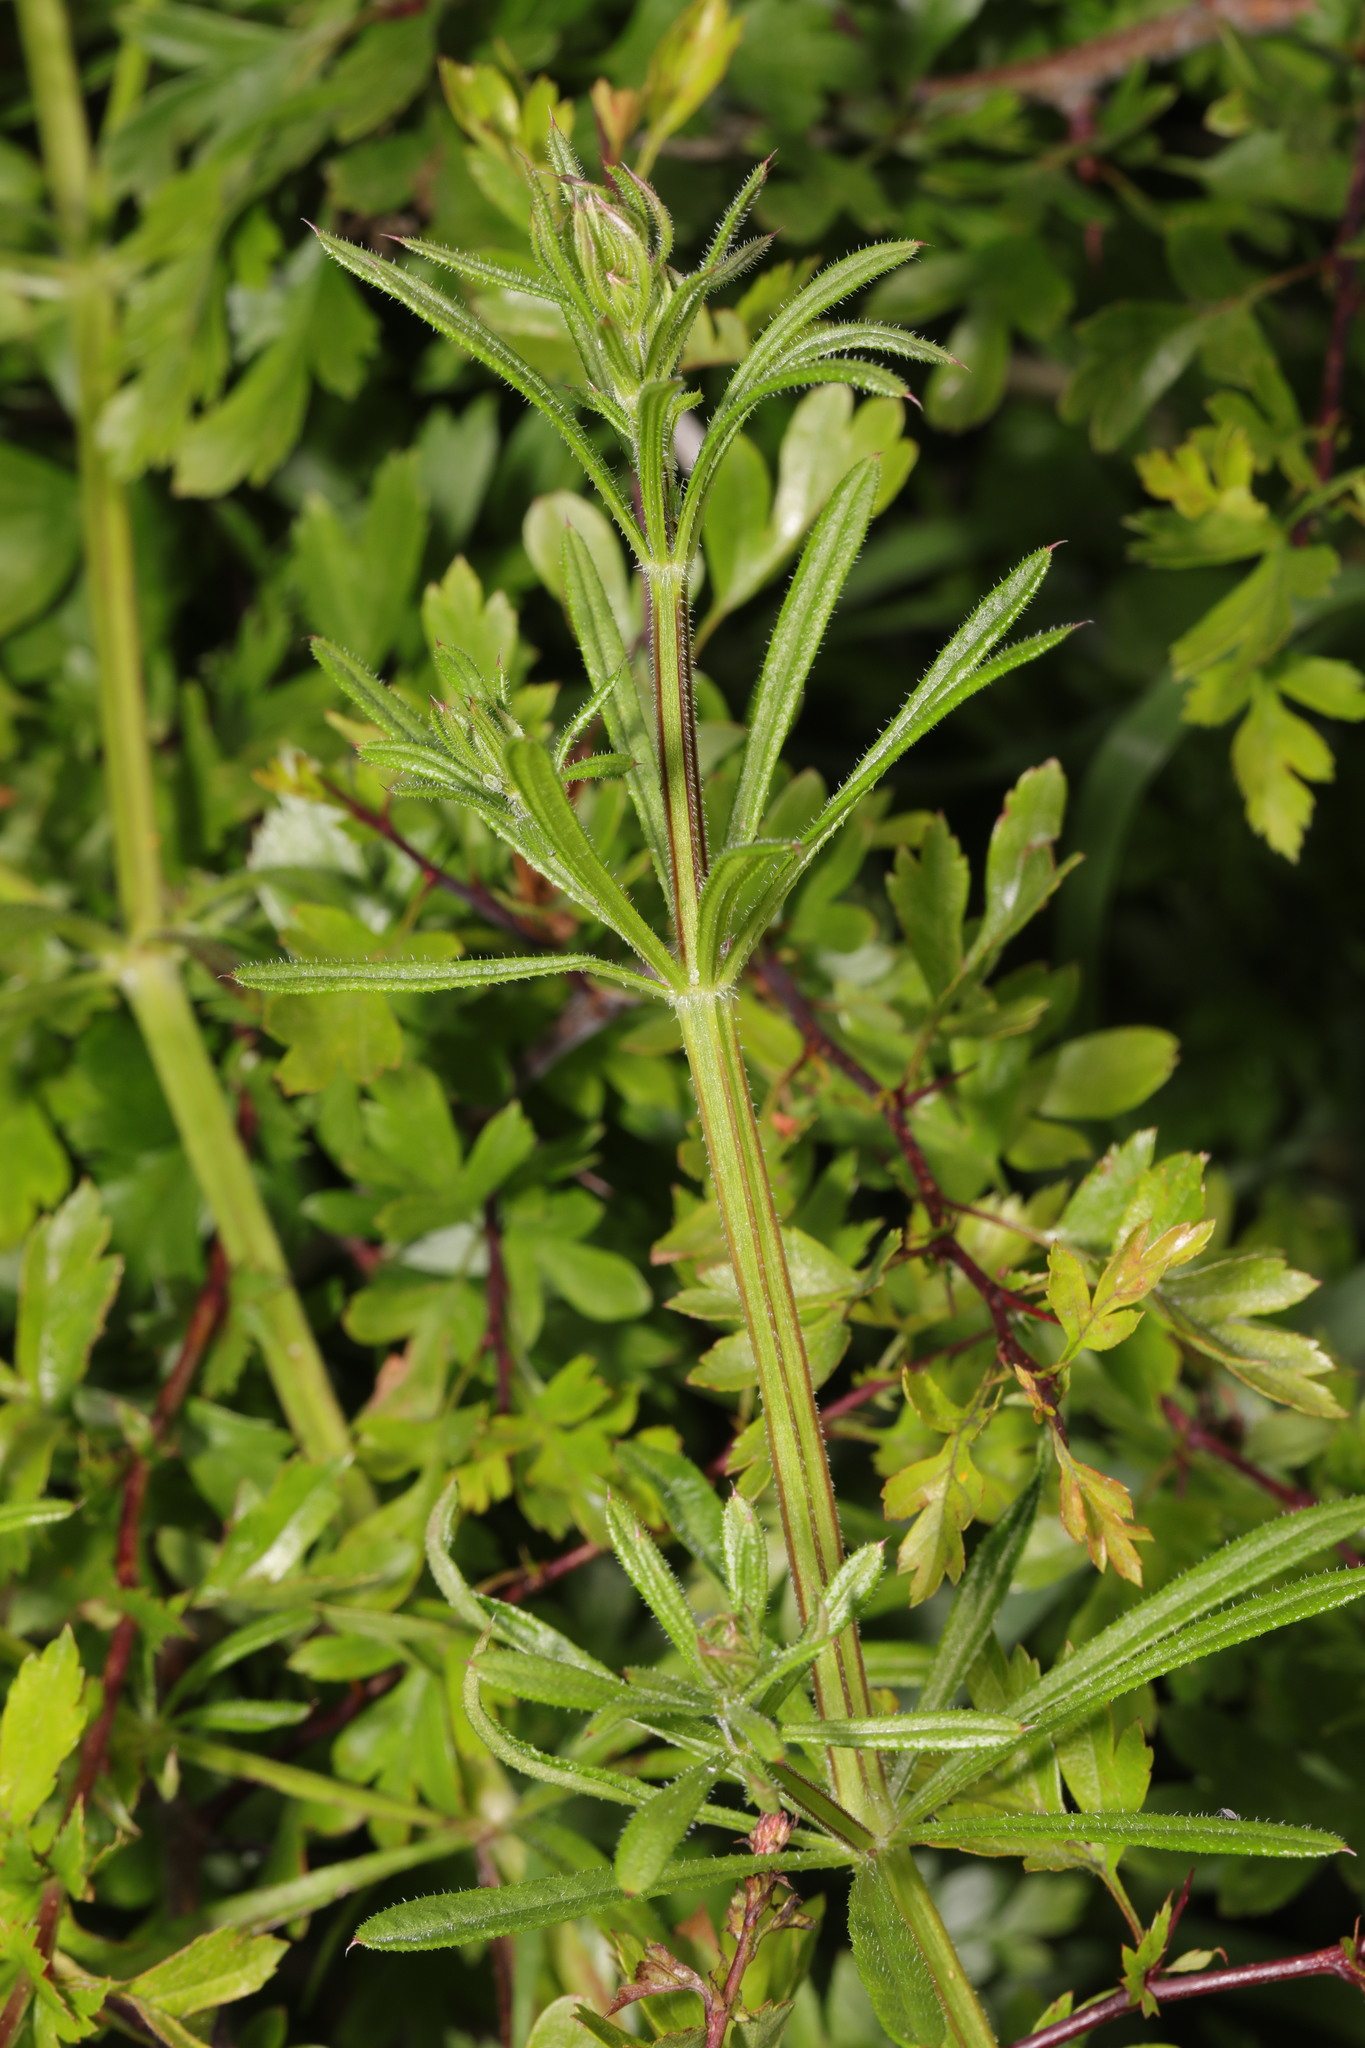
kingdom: Plantae
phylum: Tracheophyta
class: Magnoliopsida
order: Gentianales
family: Rubiaceae
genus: Galium
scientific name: Galium aparine
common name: Cleavers
